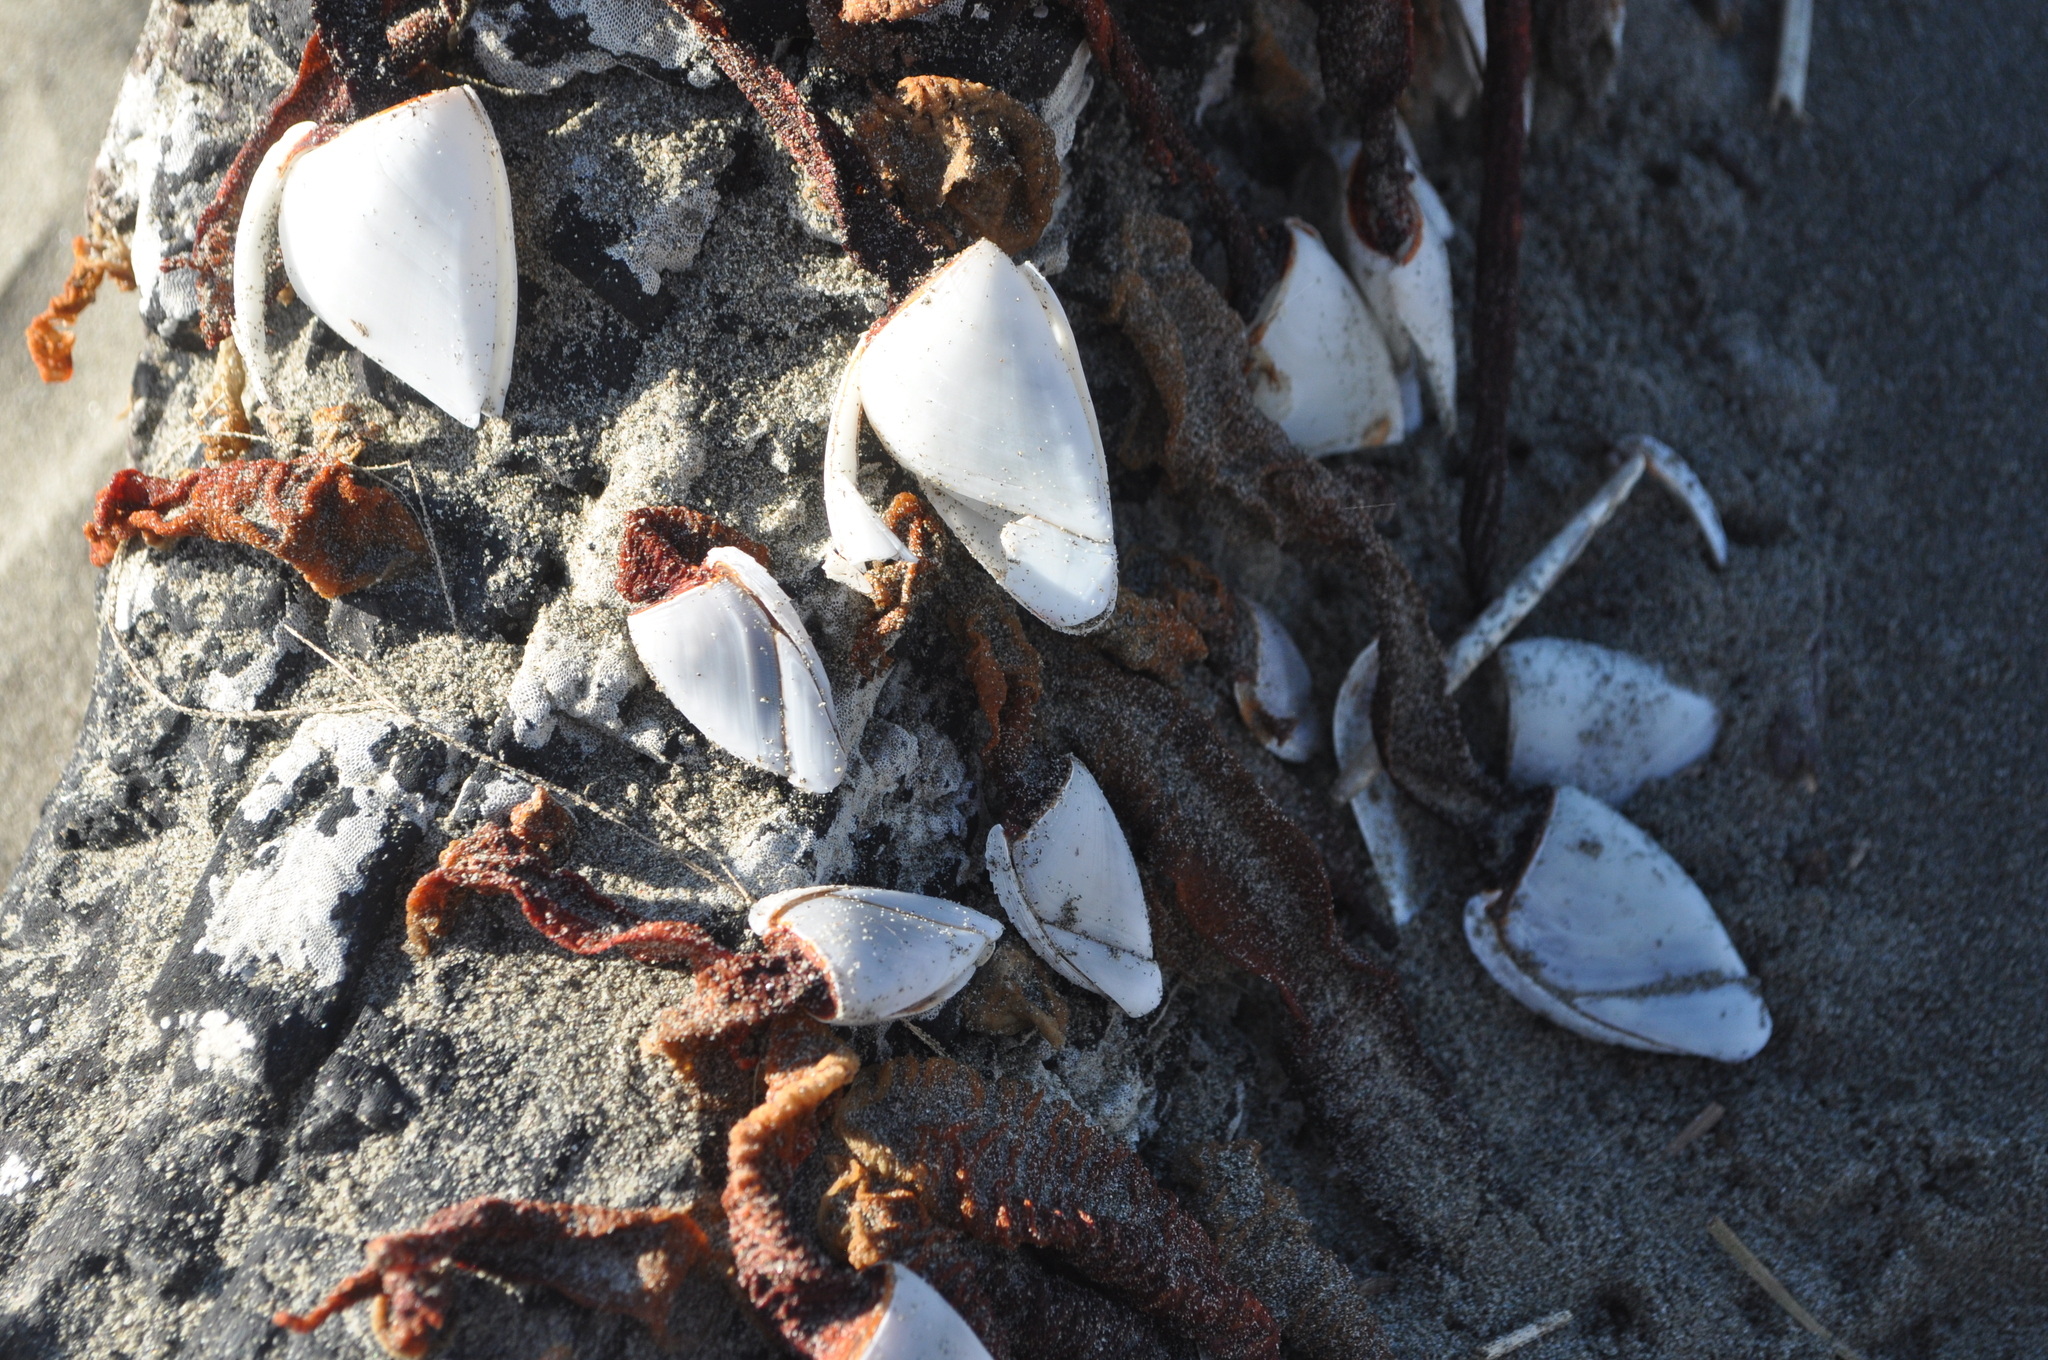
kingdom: Animalia
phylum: Arthropoda
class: Maxillopoda
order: Pedunculata
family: Lepadidae
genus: Lepas
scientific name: Lepas anatifera
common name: Common goose barnacle
